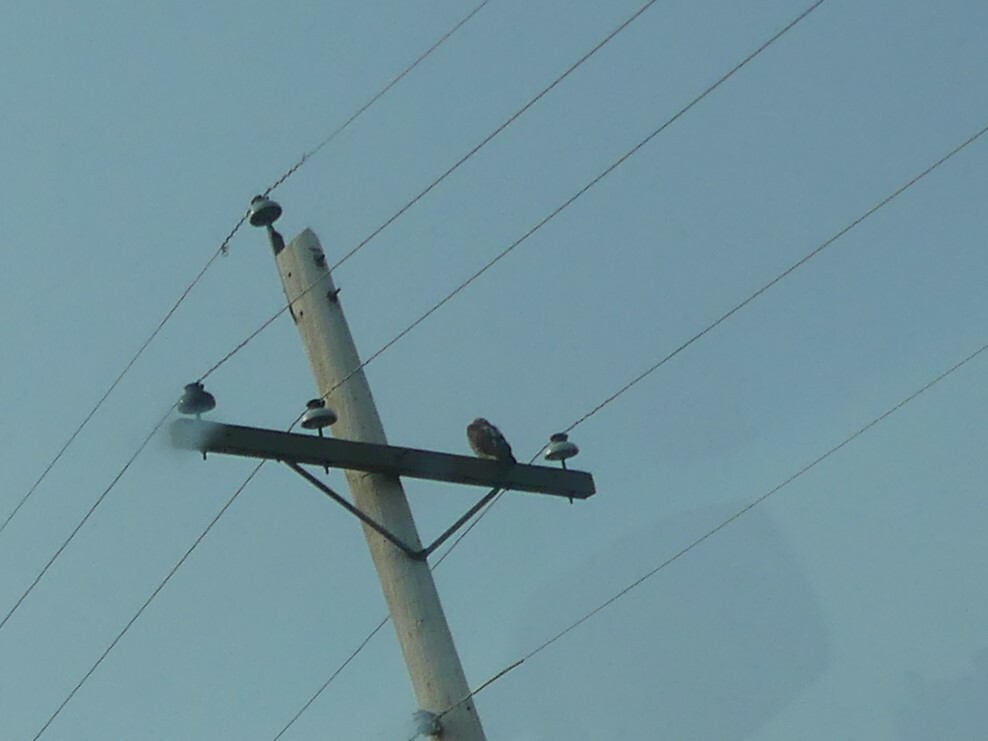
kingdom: Animalia
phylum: Chordata
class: Aves
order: Accipitriformes
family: Accipitridae
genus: Buteo
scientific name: Buteo jamaicensis
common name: Red-tailed hawk
